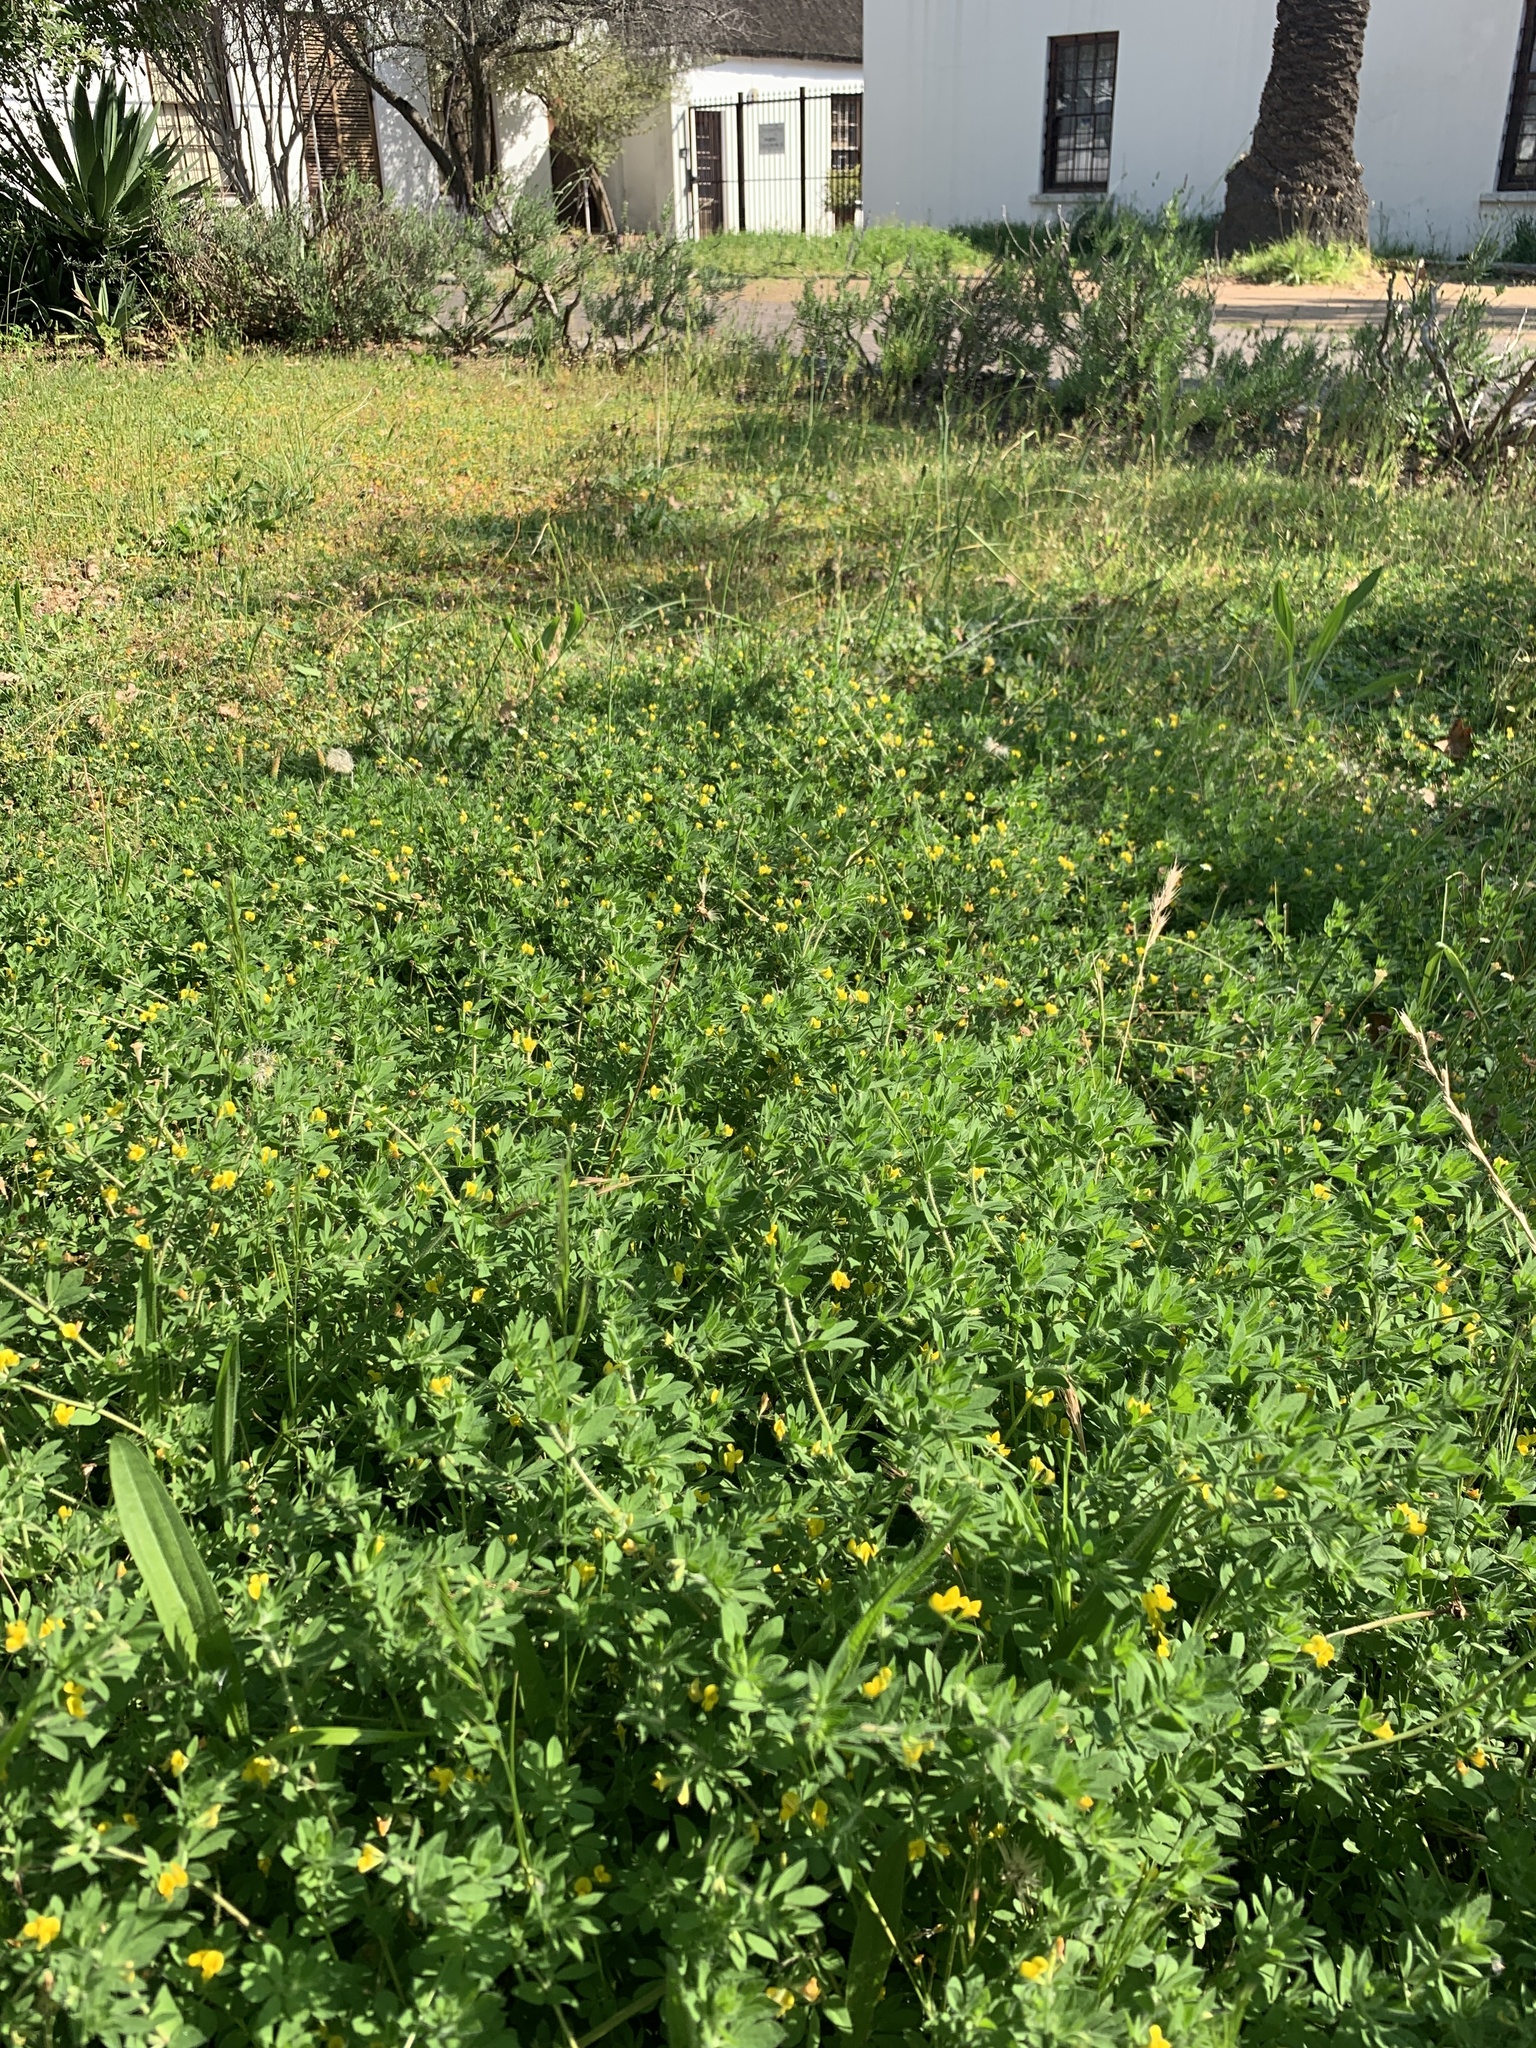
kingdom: Plantae
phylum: Tracheophyta
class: Magnoliopsida
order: Fabales
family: Fabaceae
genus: Lotus
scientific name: Lotus subbiflorus
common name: Hairy bird's-foot trefoil
